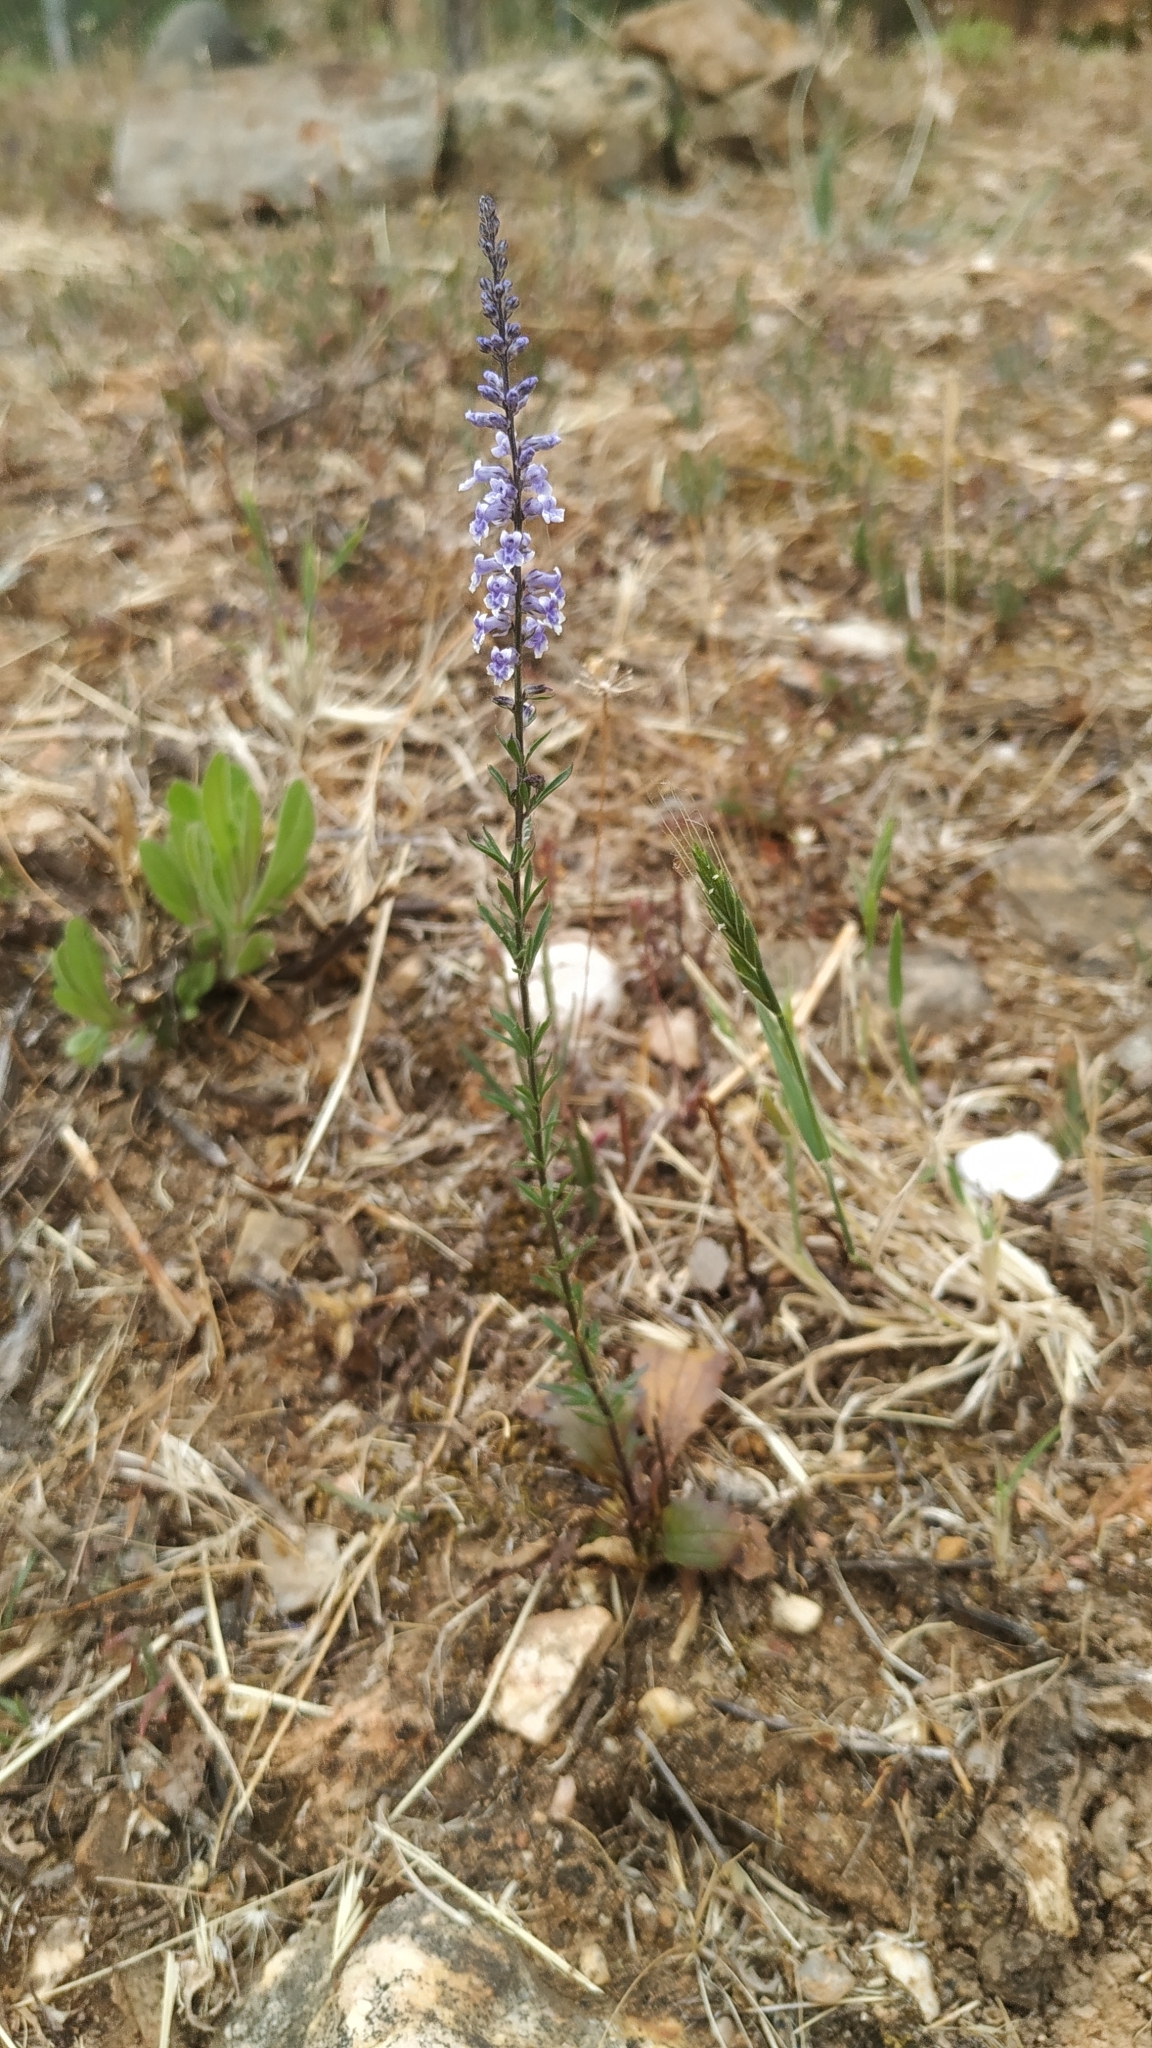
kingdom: Plantae
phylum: Tracheophyta
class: Magnoliopsida
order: Lamiales
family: Plantaginaceae
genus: Anarrhinum
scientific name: Anarrhinum bellidifolium
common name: Daisy-leaved toadflax
